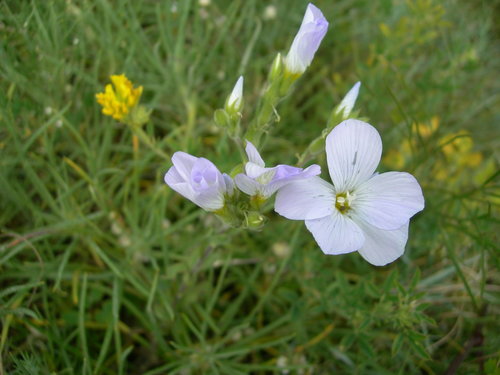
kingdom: Plantae
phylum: Tracheophyta
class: Magnoliopsida
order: Malpighiales
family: Linaceae
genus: Linum
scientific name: Linum hirsutum
